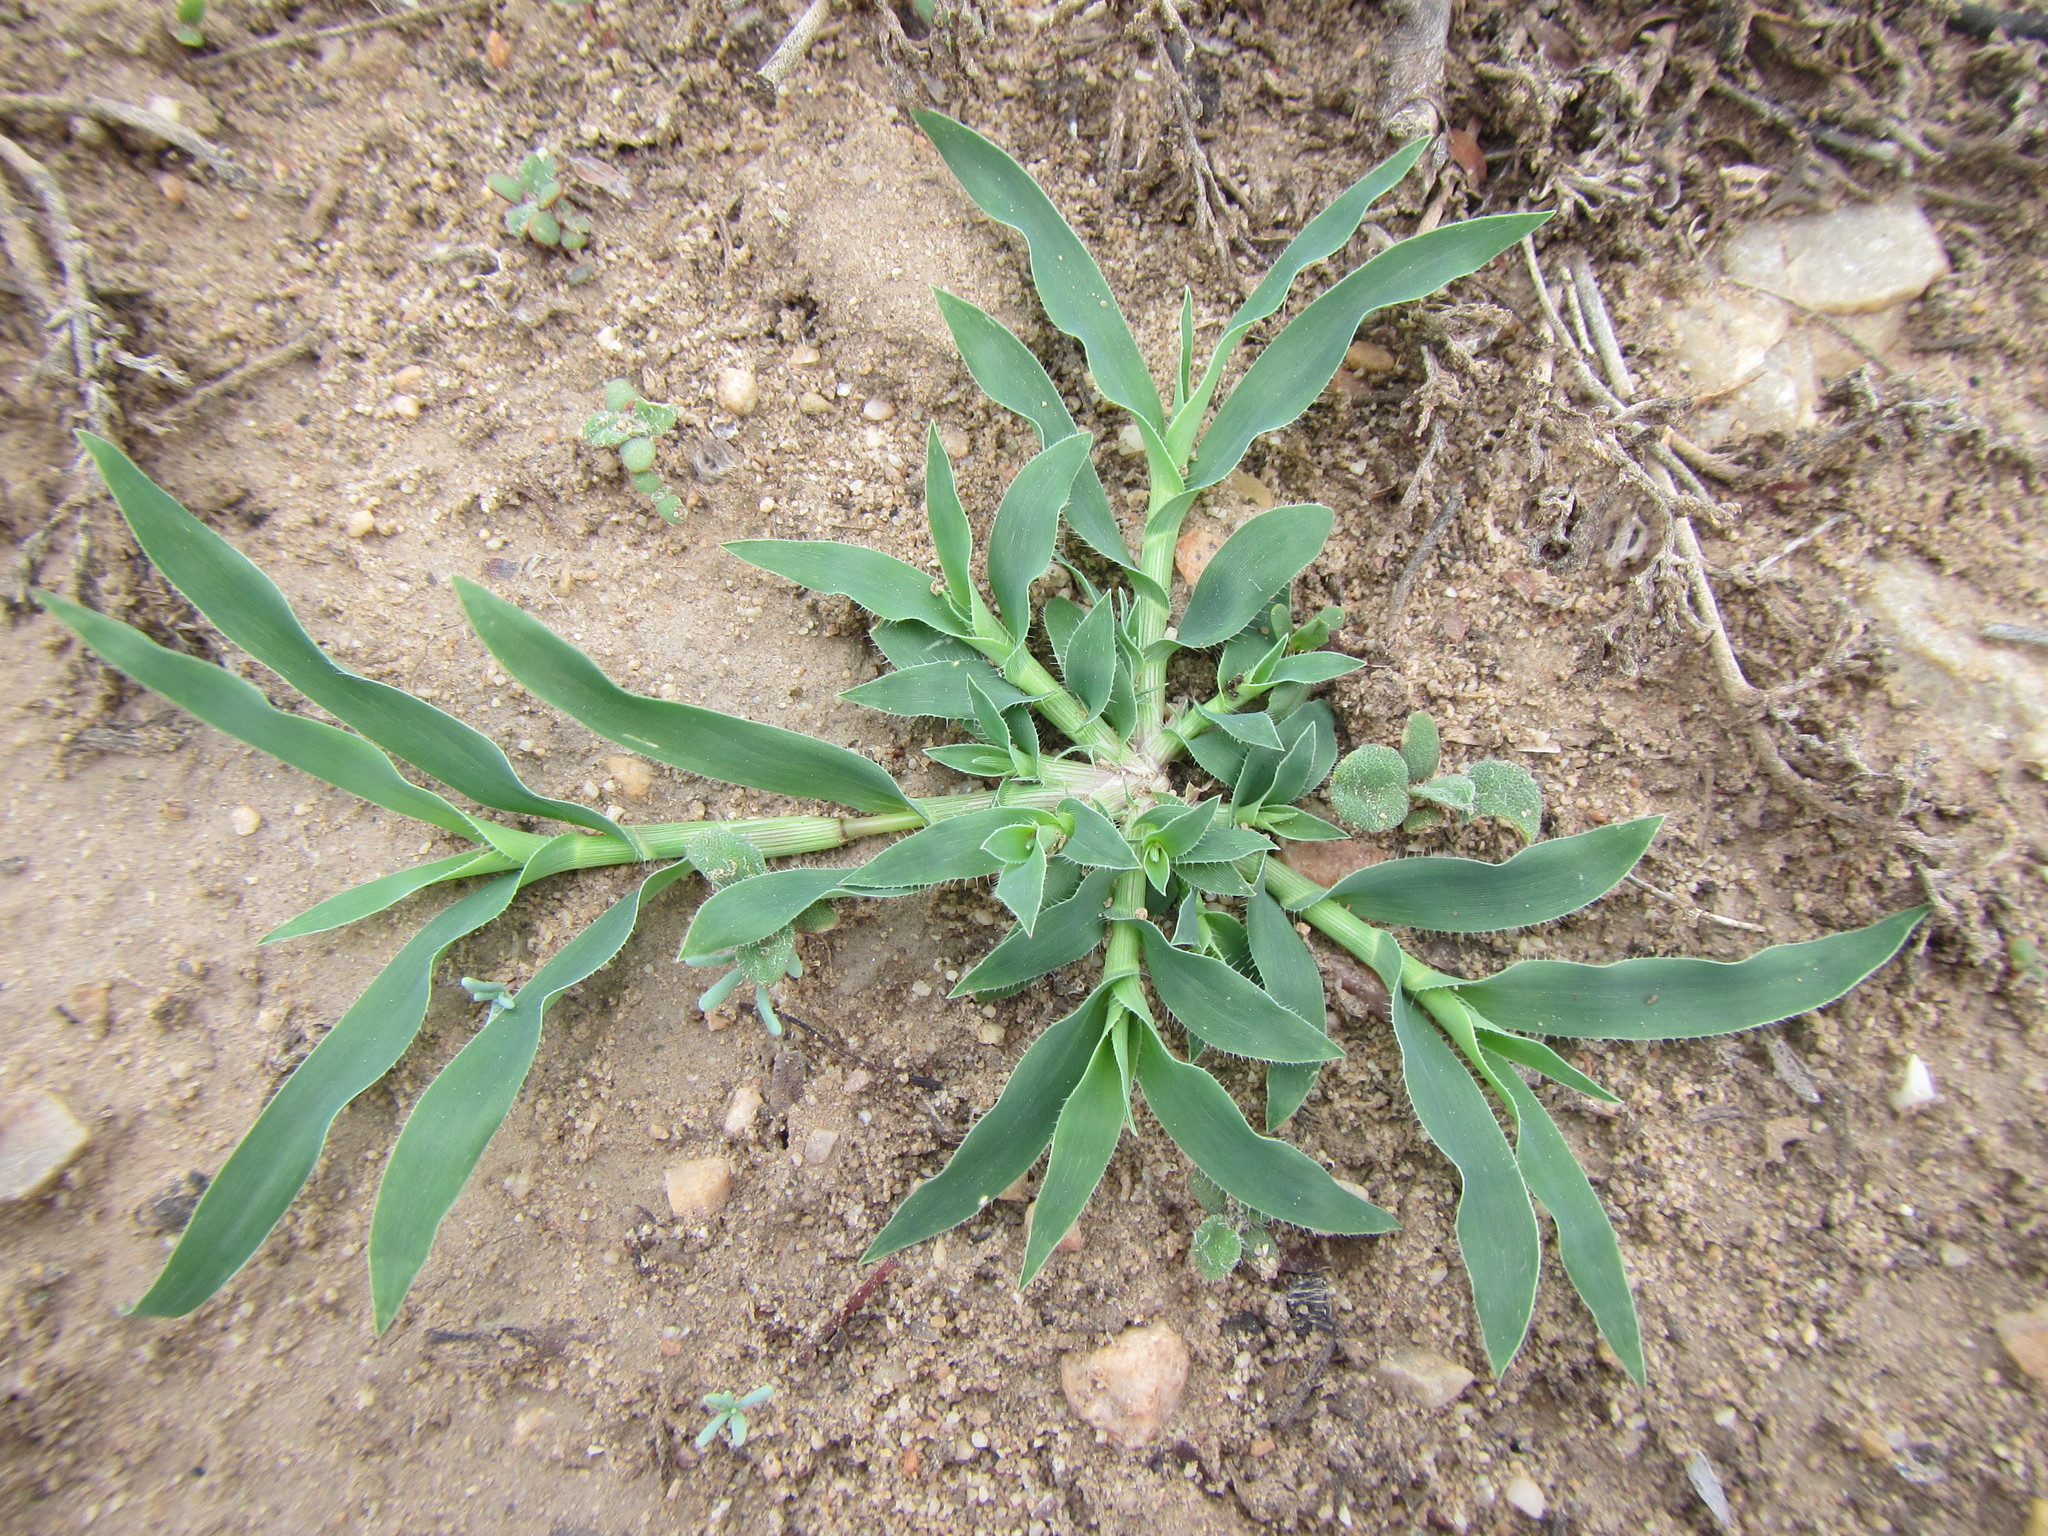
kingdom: Plantae
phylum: Tracheophyta
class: Liliopsida
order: Poales
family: Poaceae
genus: Tragus
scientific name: Tragus berteronianus
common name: African bur-grass
